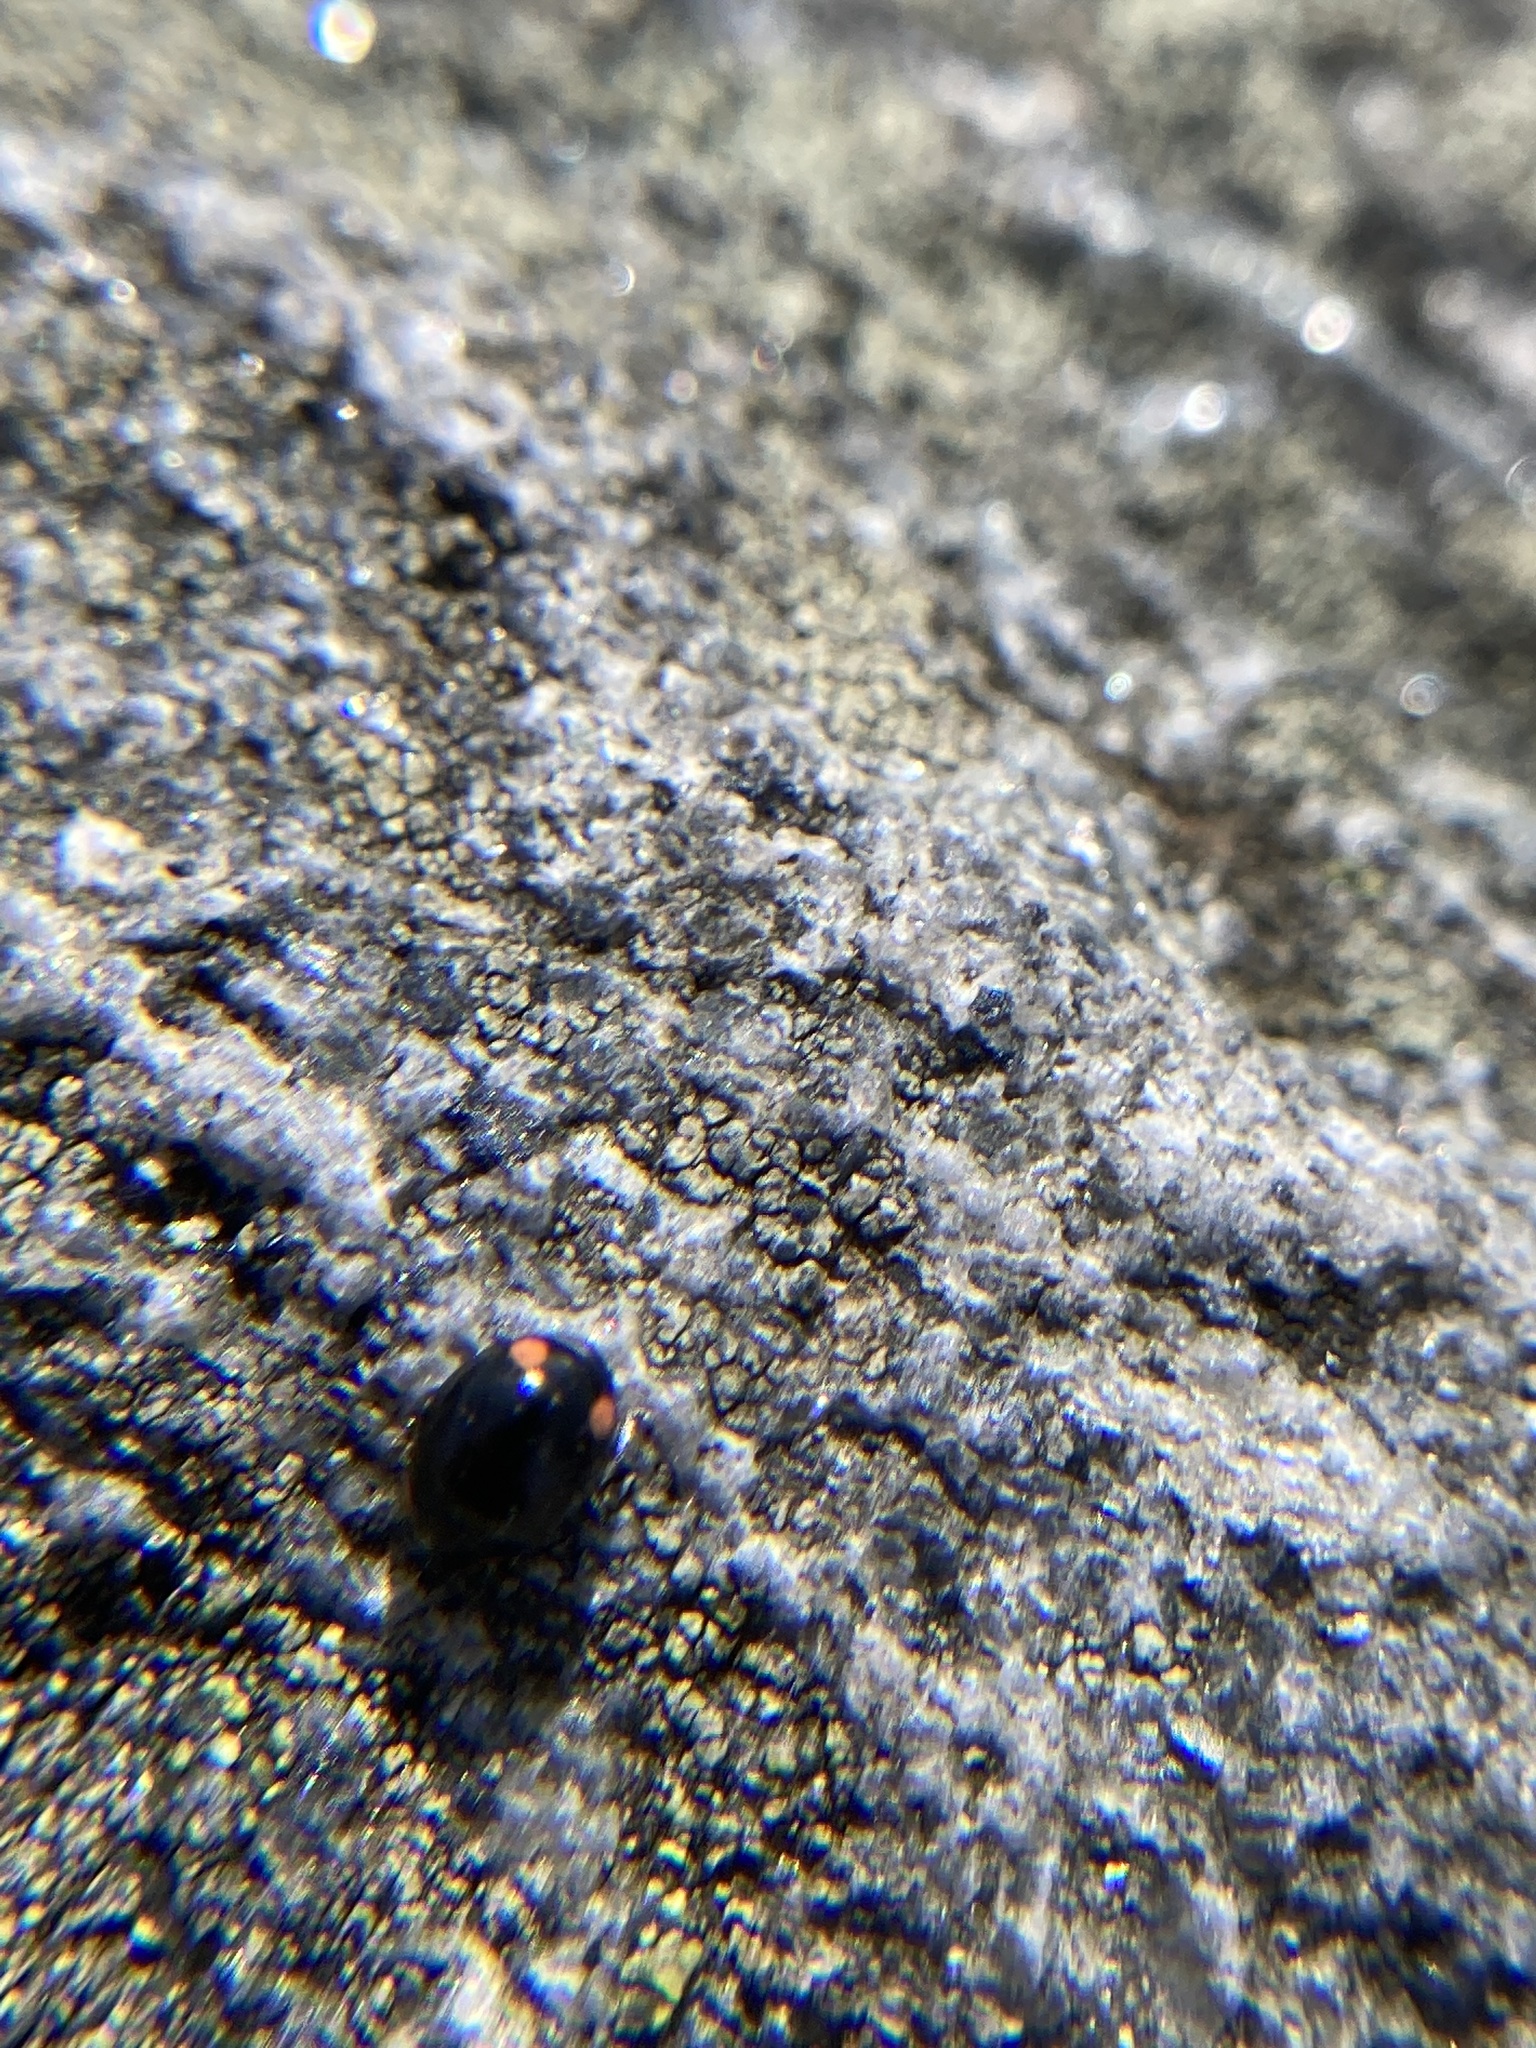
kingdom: Animalia
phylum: Arthropoda
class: Insecta
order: Coleoptera
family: Coccinellidae
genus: Hyperaspis
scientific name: Hyperaspis bigeminata
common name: Bigeminate sigil lady beetle
